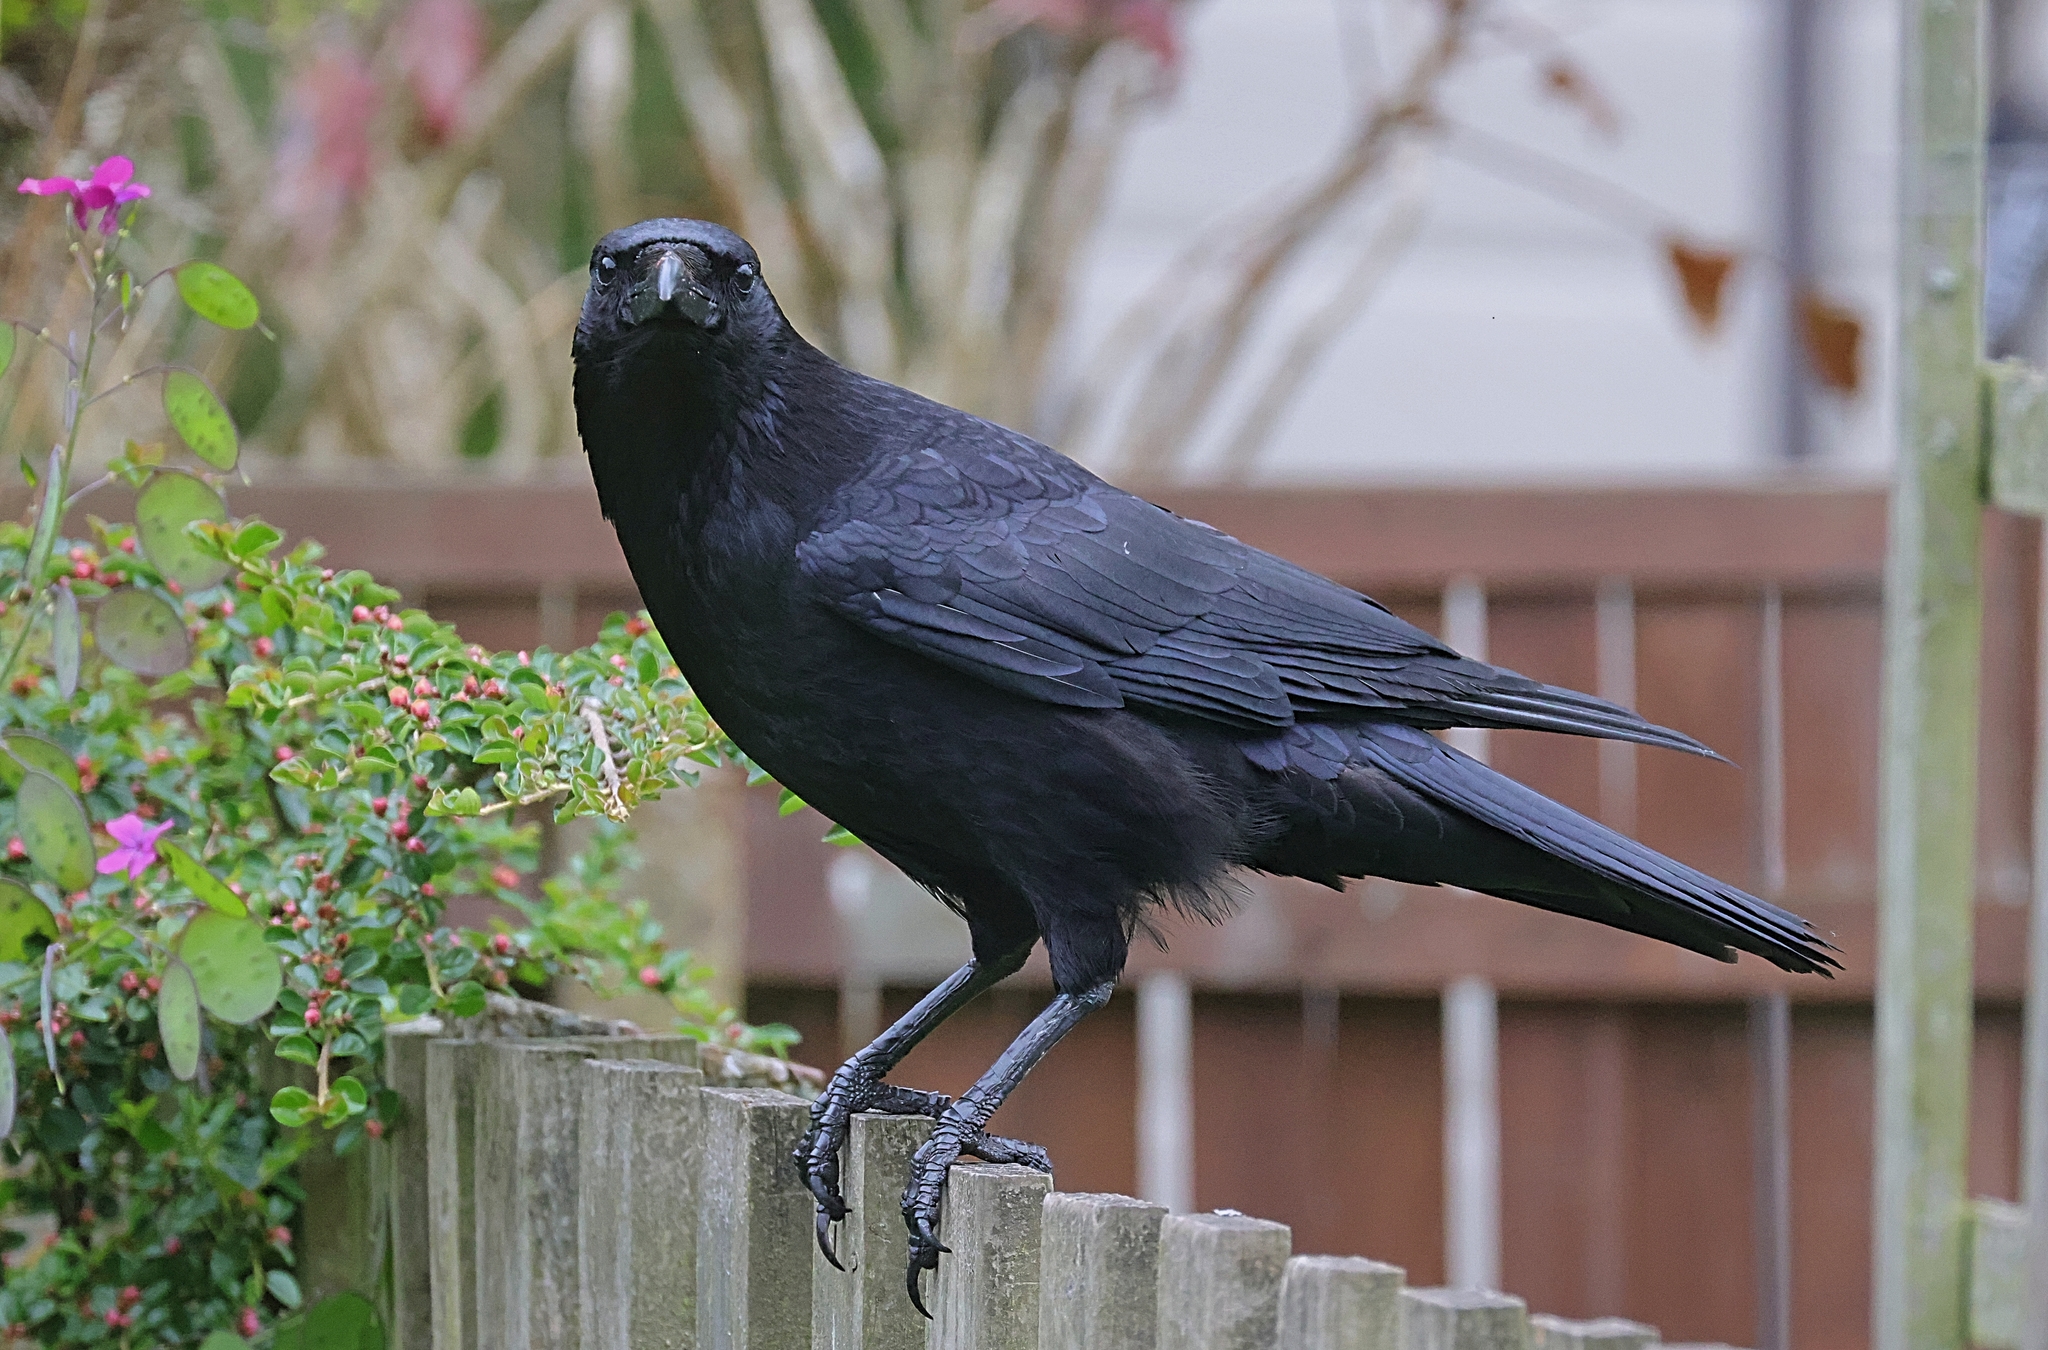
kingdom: Animalia
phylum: Chordata
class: Aves
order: Passeriformes
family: Corvidae
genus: Corvus
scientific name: Corvus corone
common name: Carrion crow
